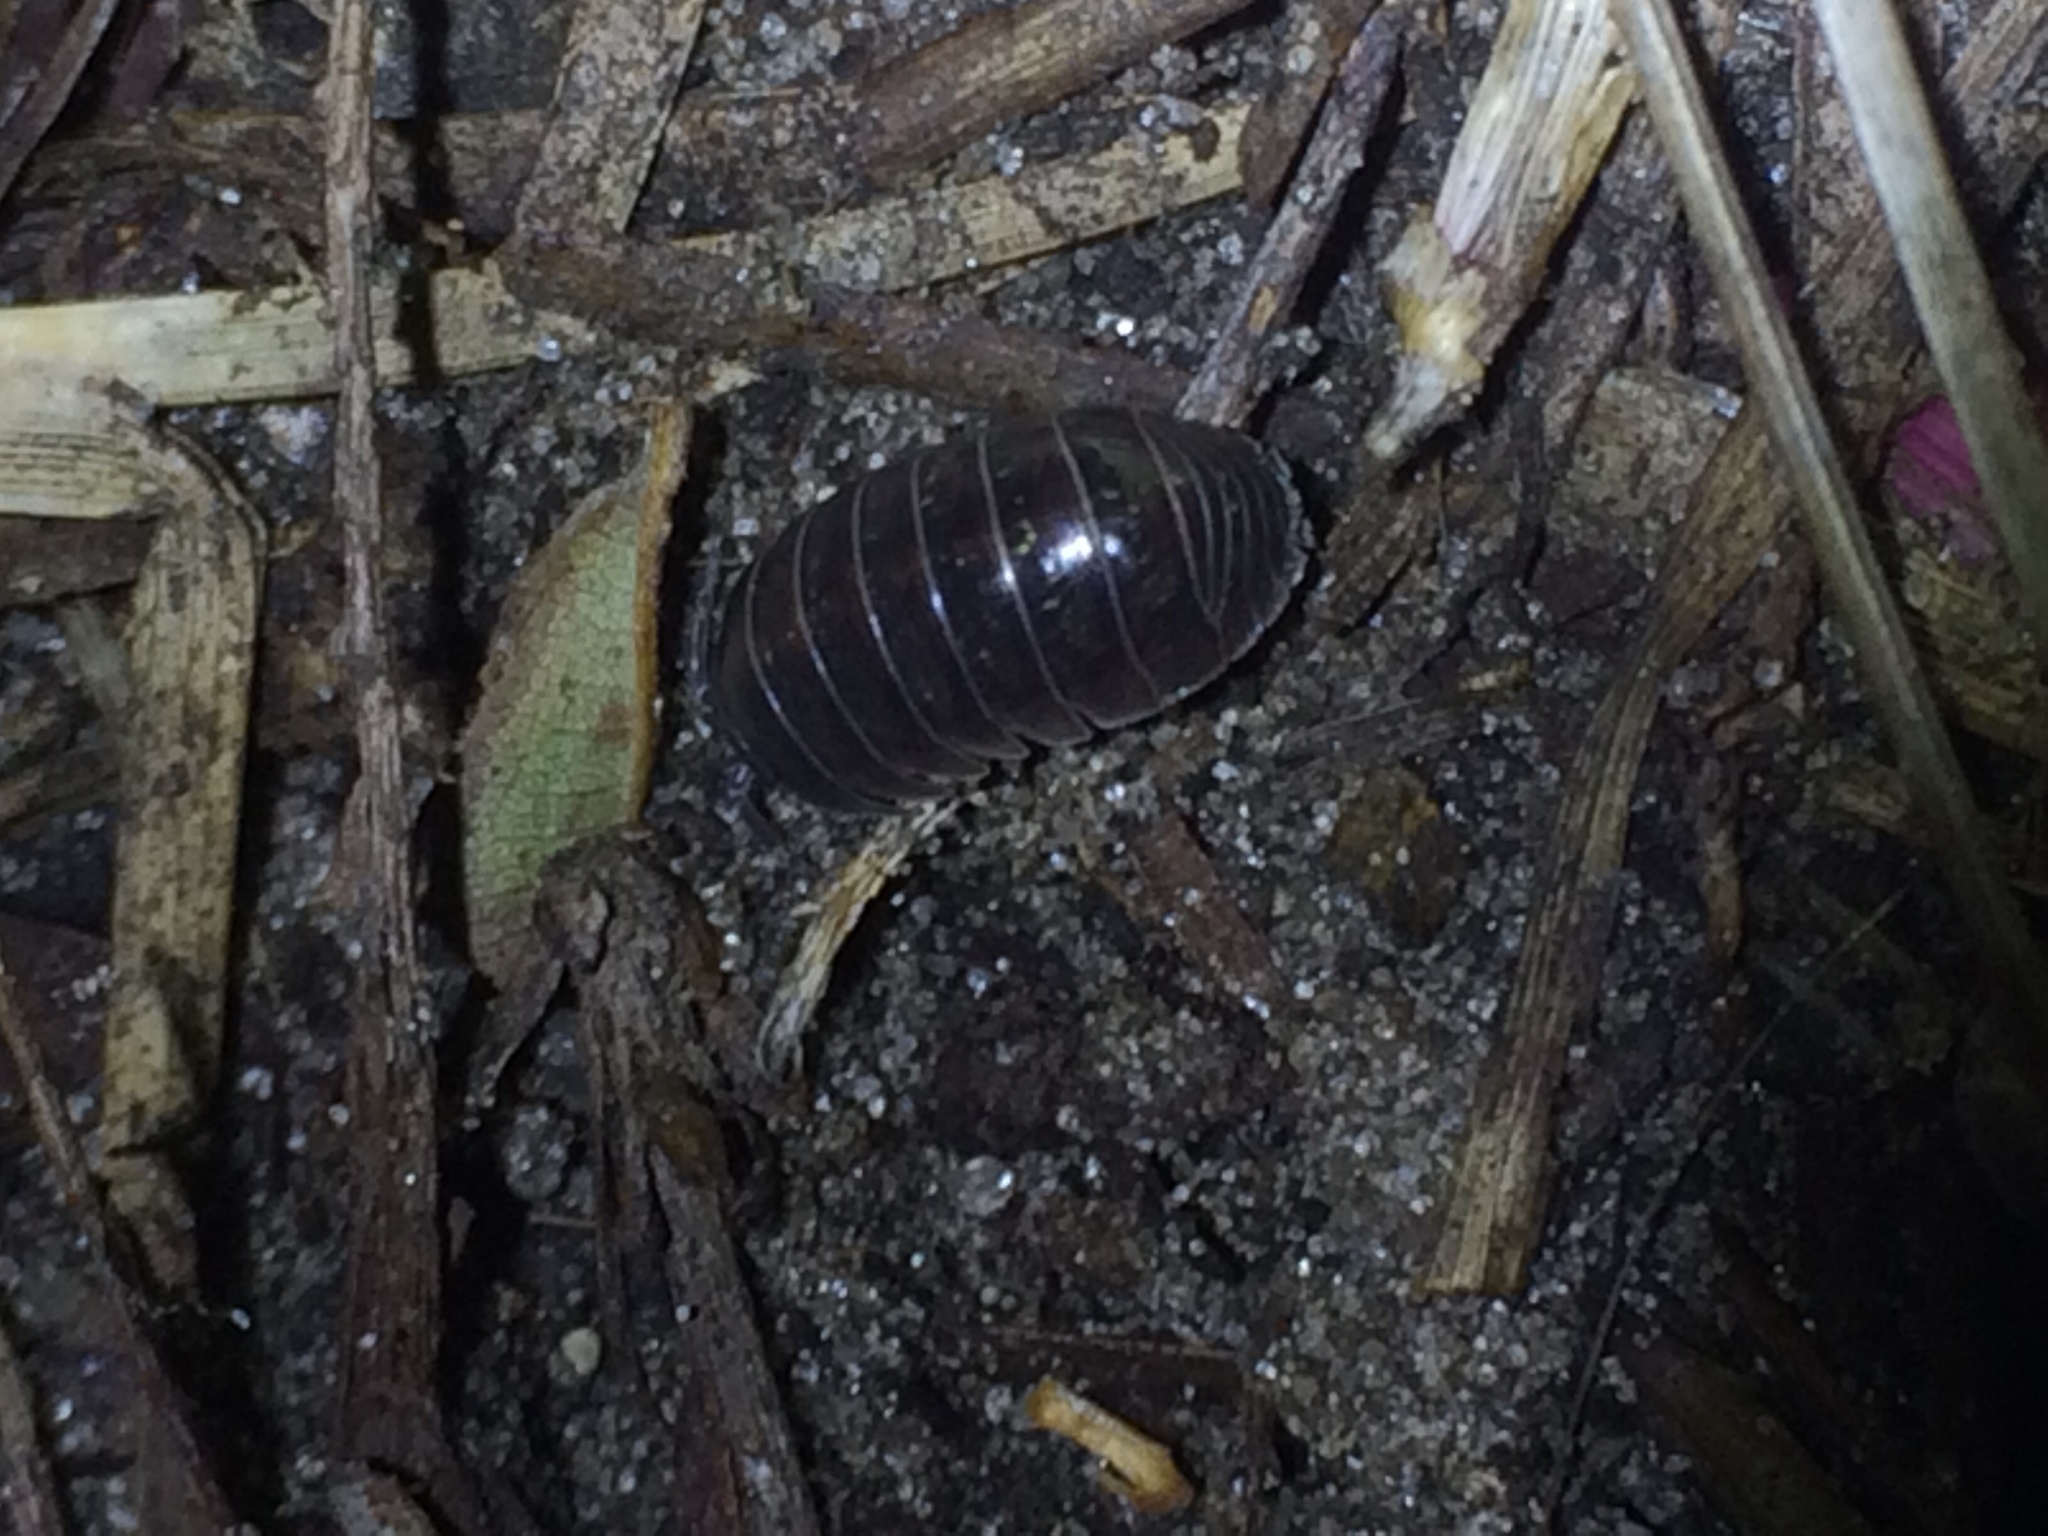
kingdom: Animalia
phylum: Arthropoda
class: Malacostraca
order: Isopoda
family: Armadillidiidae
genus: Armadillidium
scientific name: Armadillidium vulgare
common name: Common pill woodlouse
